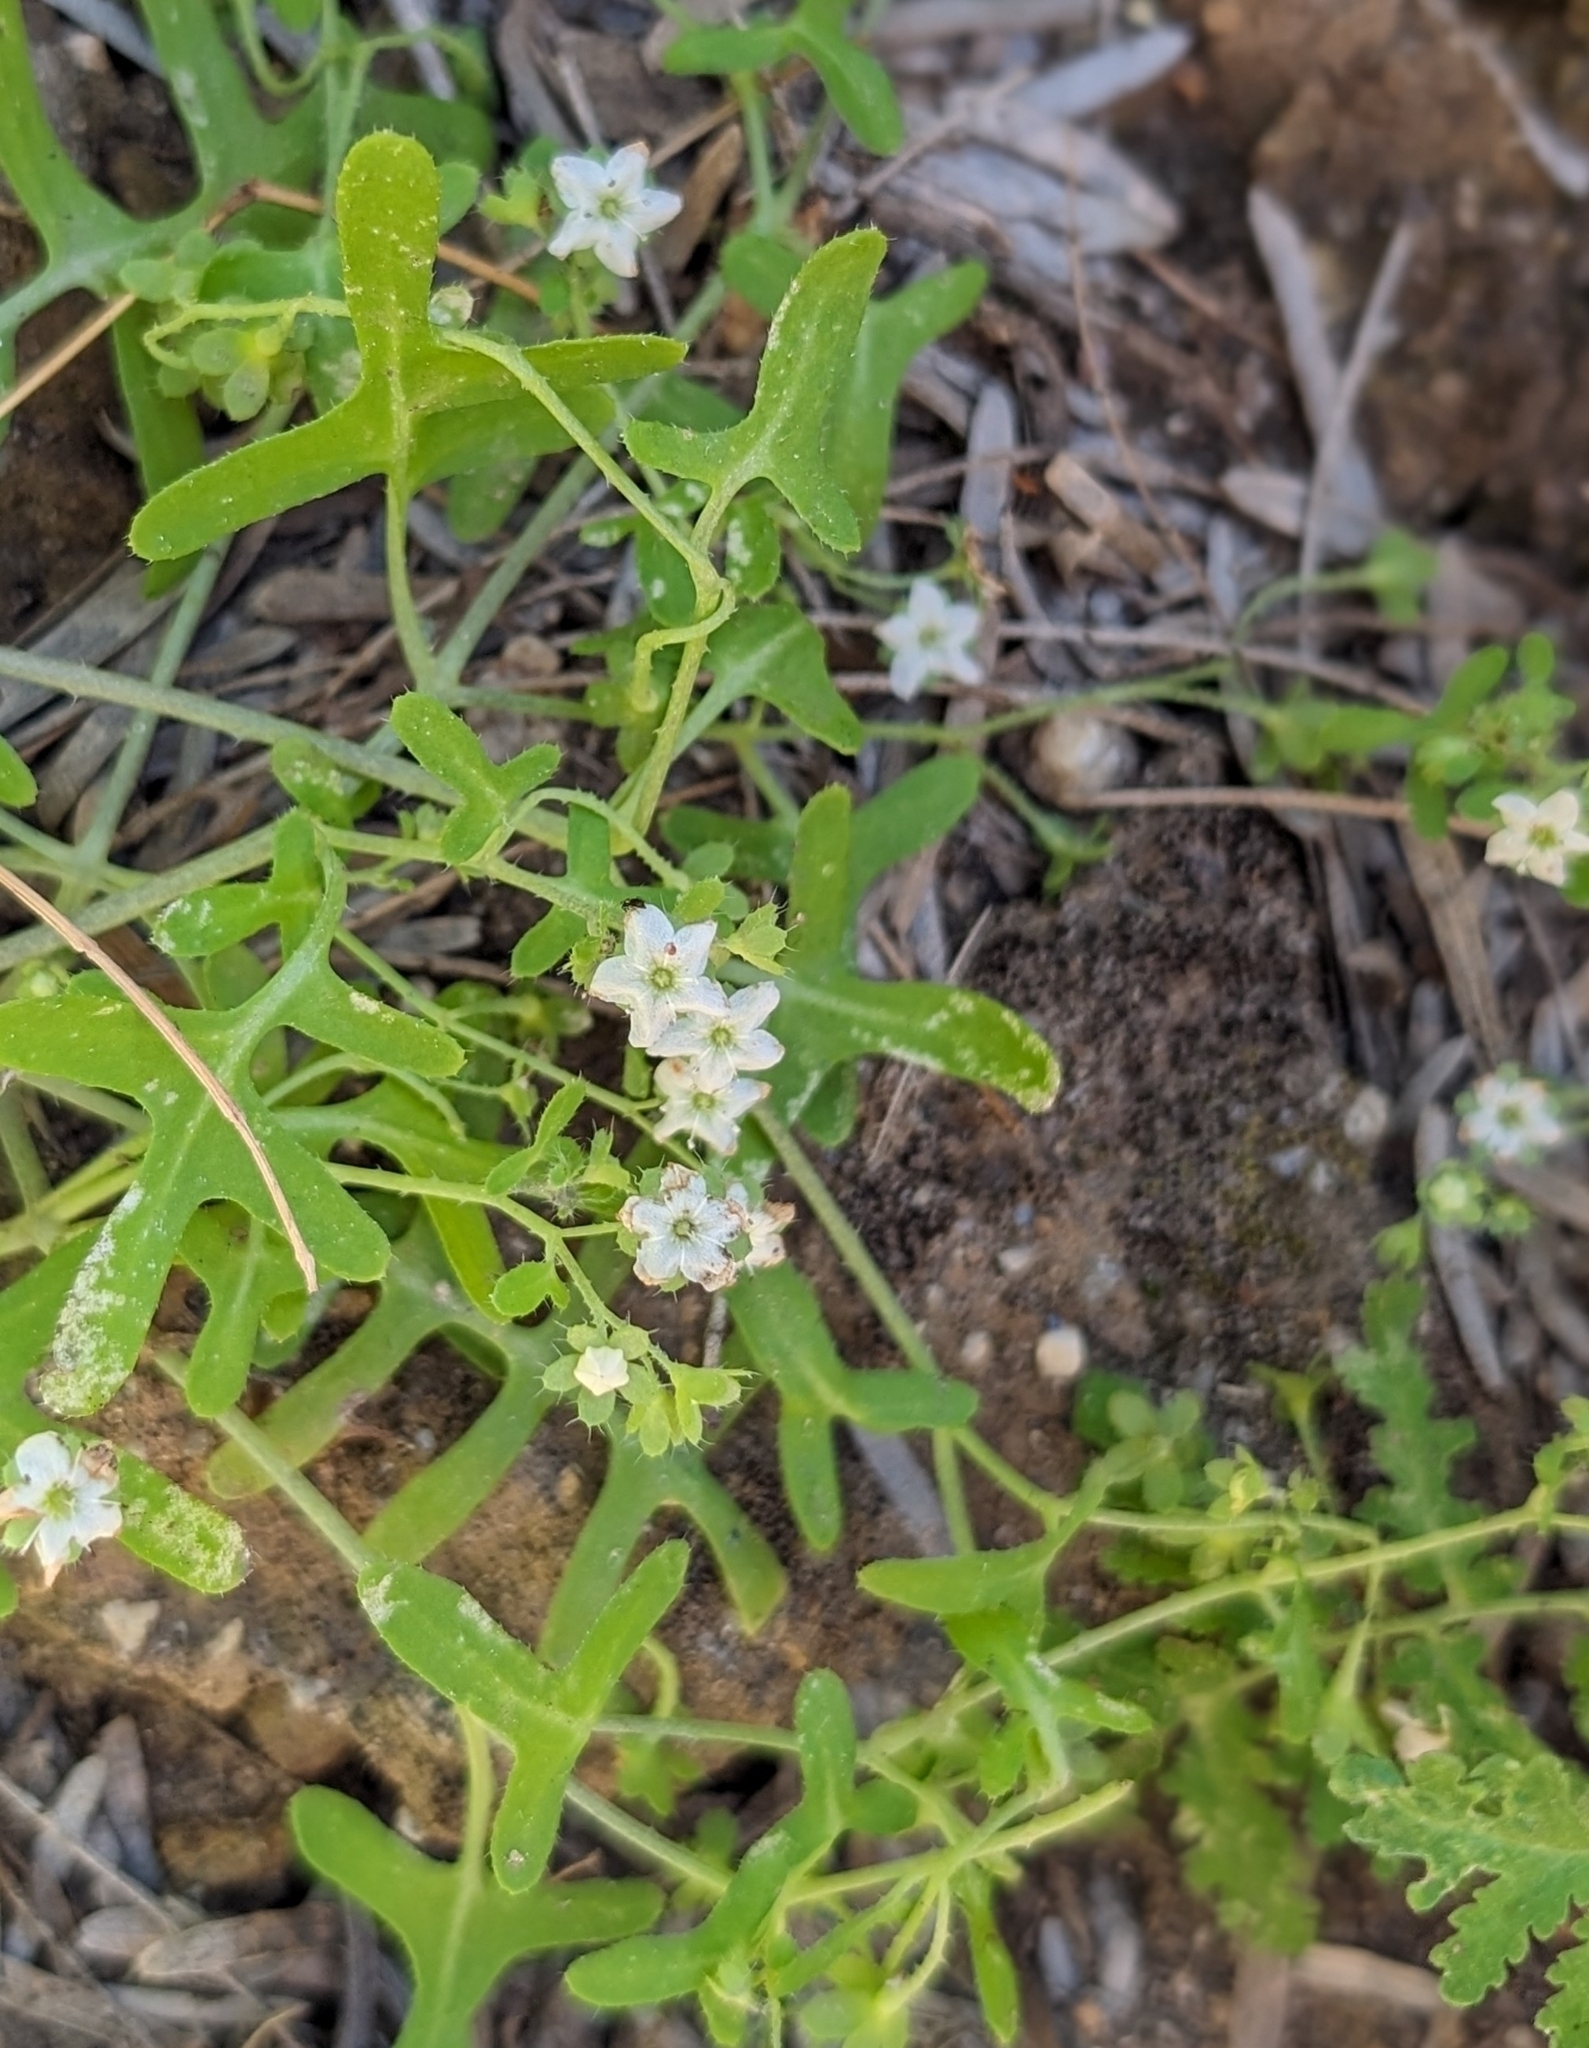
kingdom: Plantae
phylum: Tracheophyta
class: Magnoliopsida
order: Boraginales
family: Hydrophyllaceae
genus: Pholistoma
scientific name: Pholistoma membranaceum
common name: White fiesta-flower
